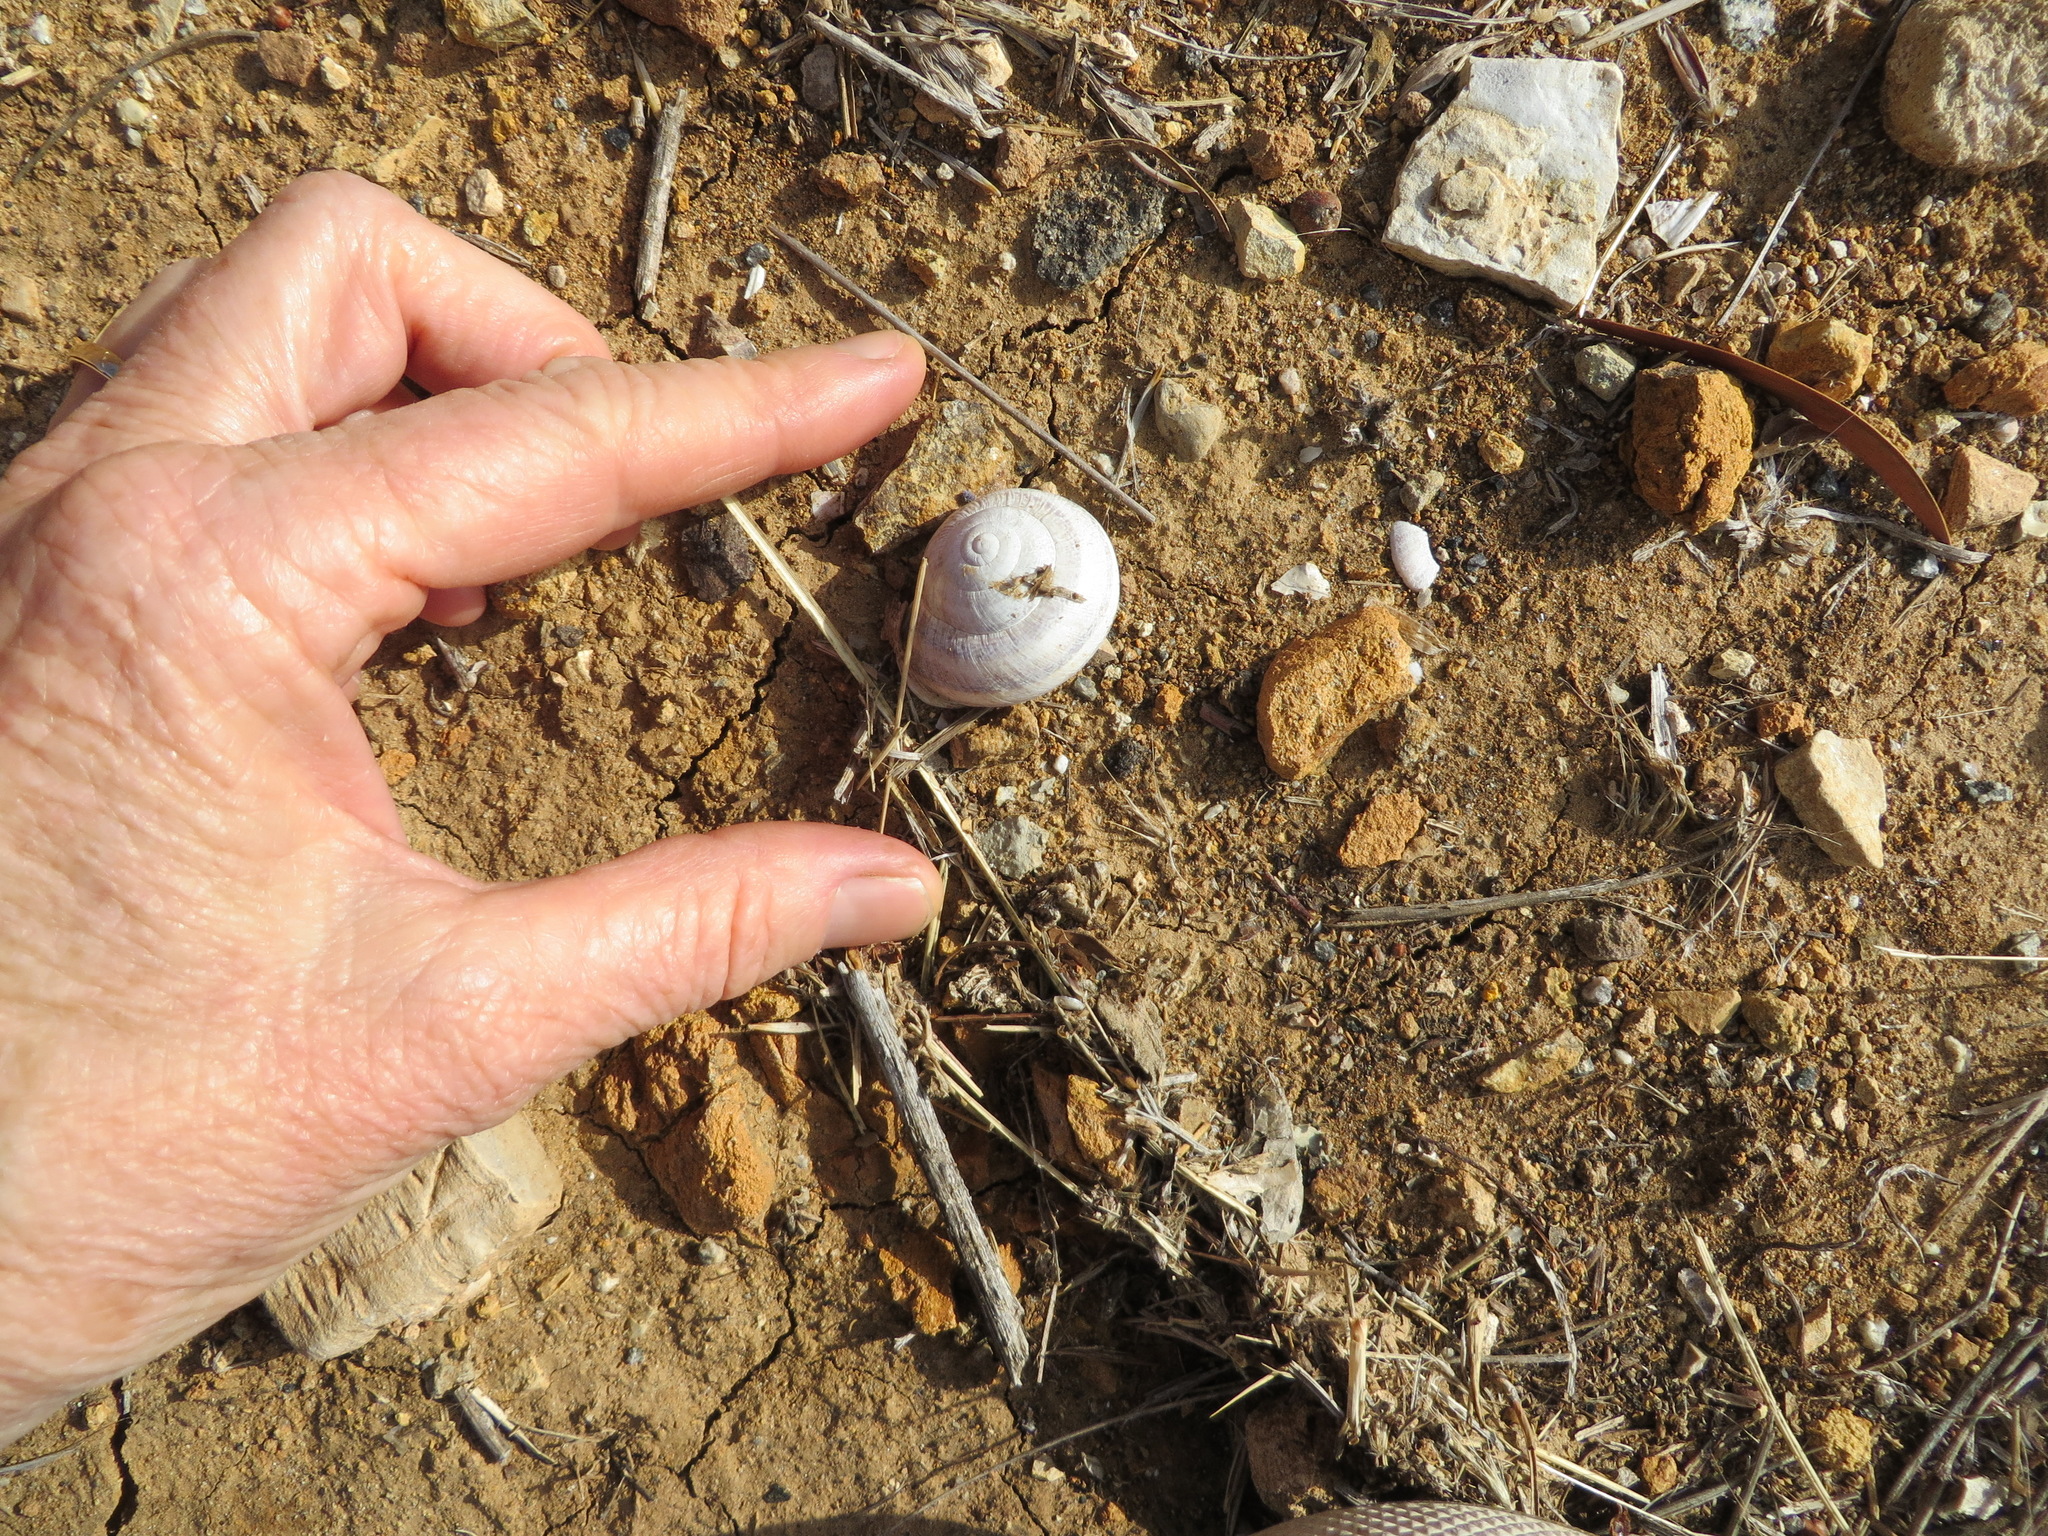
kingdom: Animalia
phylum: Mollusca
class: Gastropoda
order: Stylommatophora
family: Helicidae
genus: Otala
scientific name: Otala lactea
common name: Milk snail
